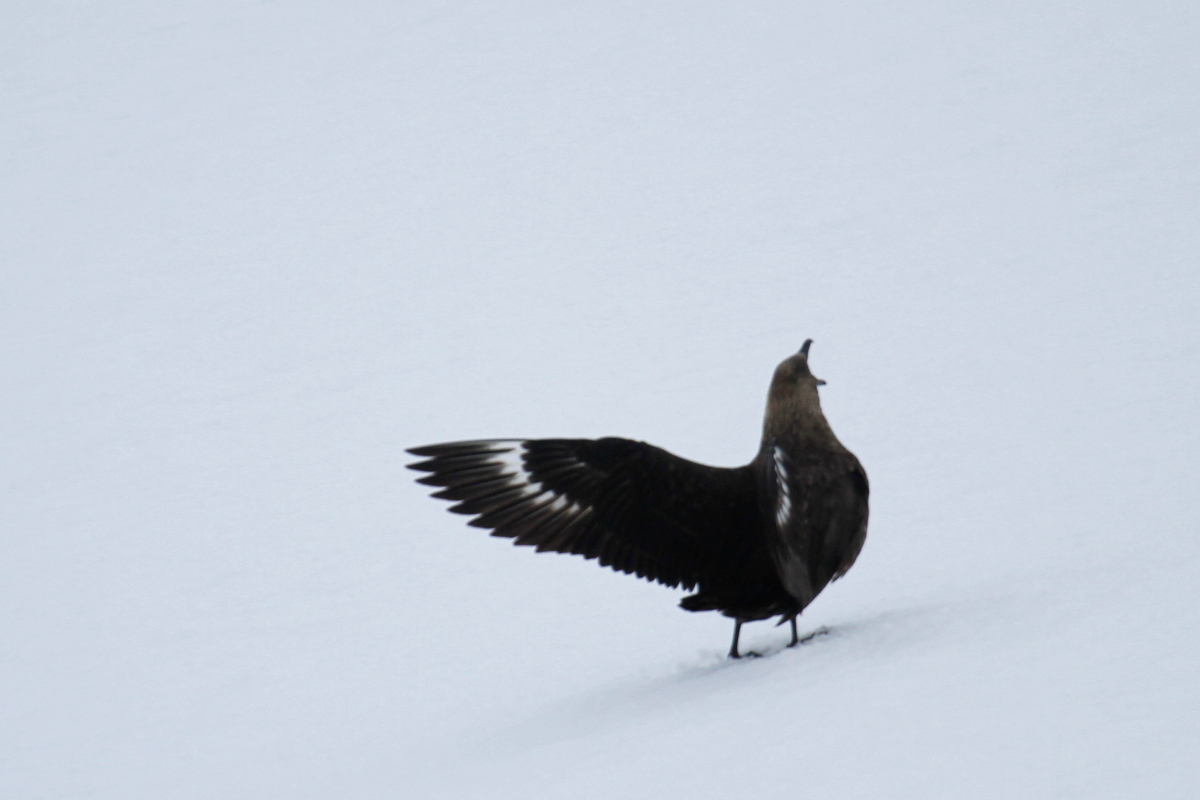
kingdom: Animalia
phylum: Chordata
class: Aves
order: Charadriiformes
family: Stercorariidae
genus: Stercorarius
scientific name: Stercorarius maccormicki
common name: South polar skua
